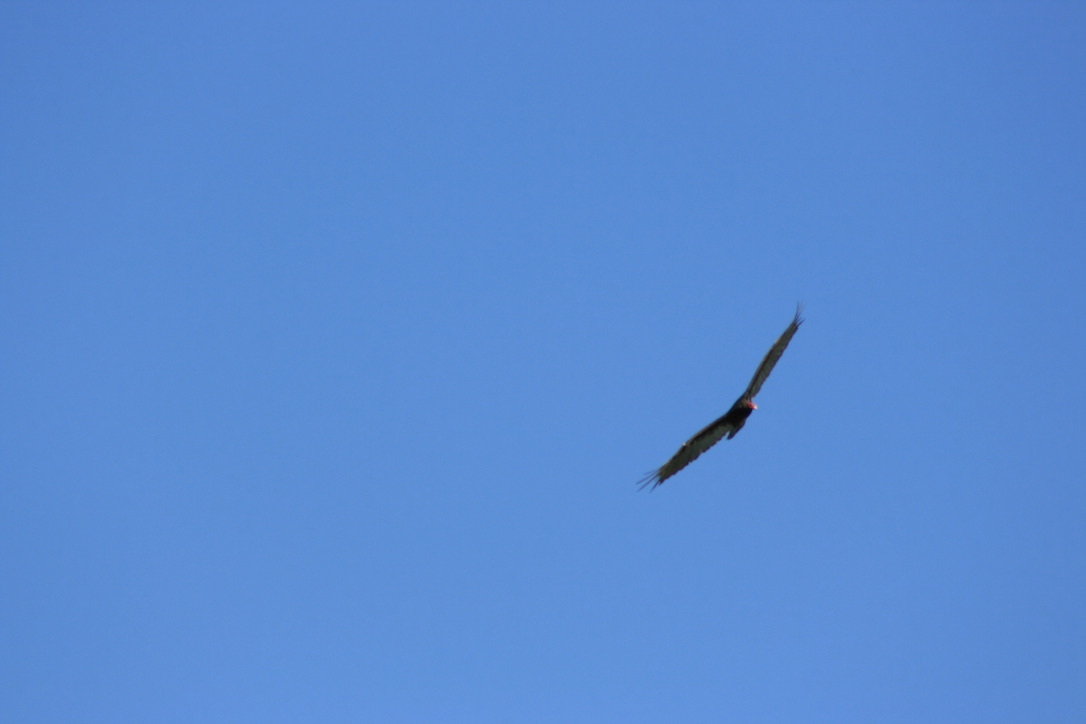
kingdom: Animalia
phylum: Chordata
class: Aves
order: Accipitriformes
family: Cathartidae
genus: Cathartes
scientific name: Cathartes aura
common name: Turkey vulture
